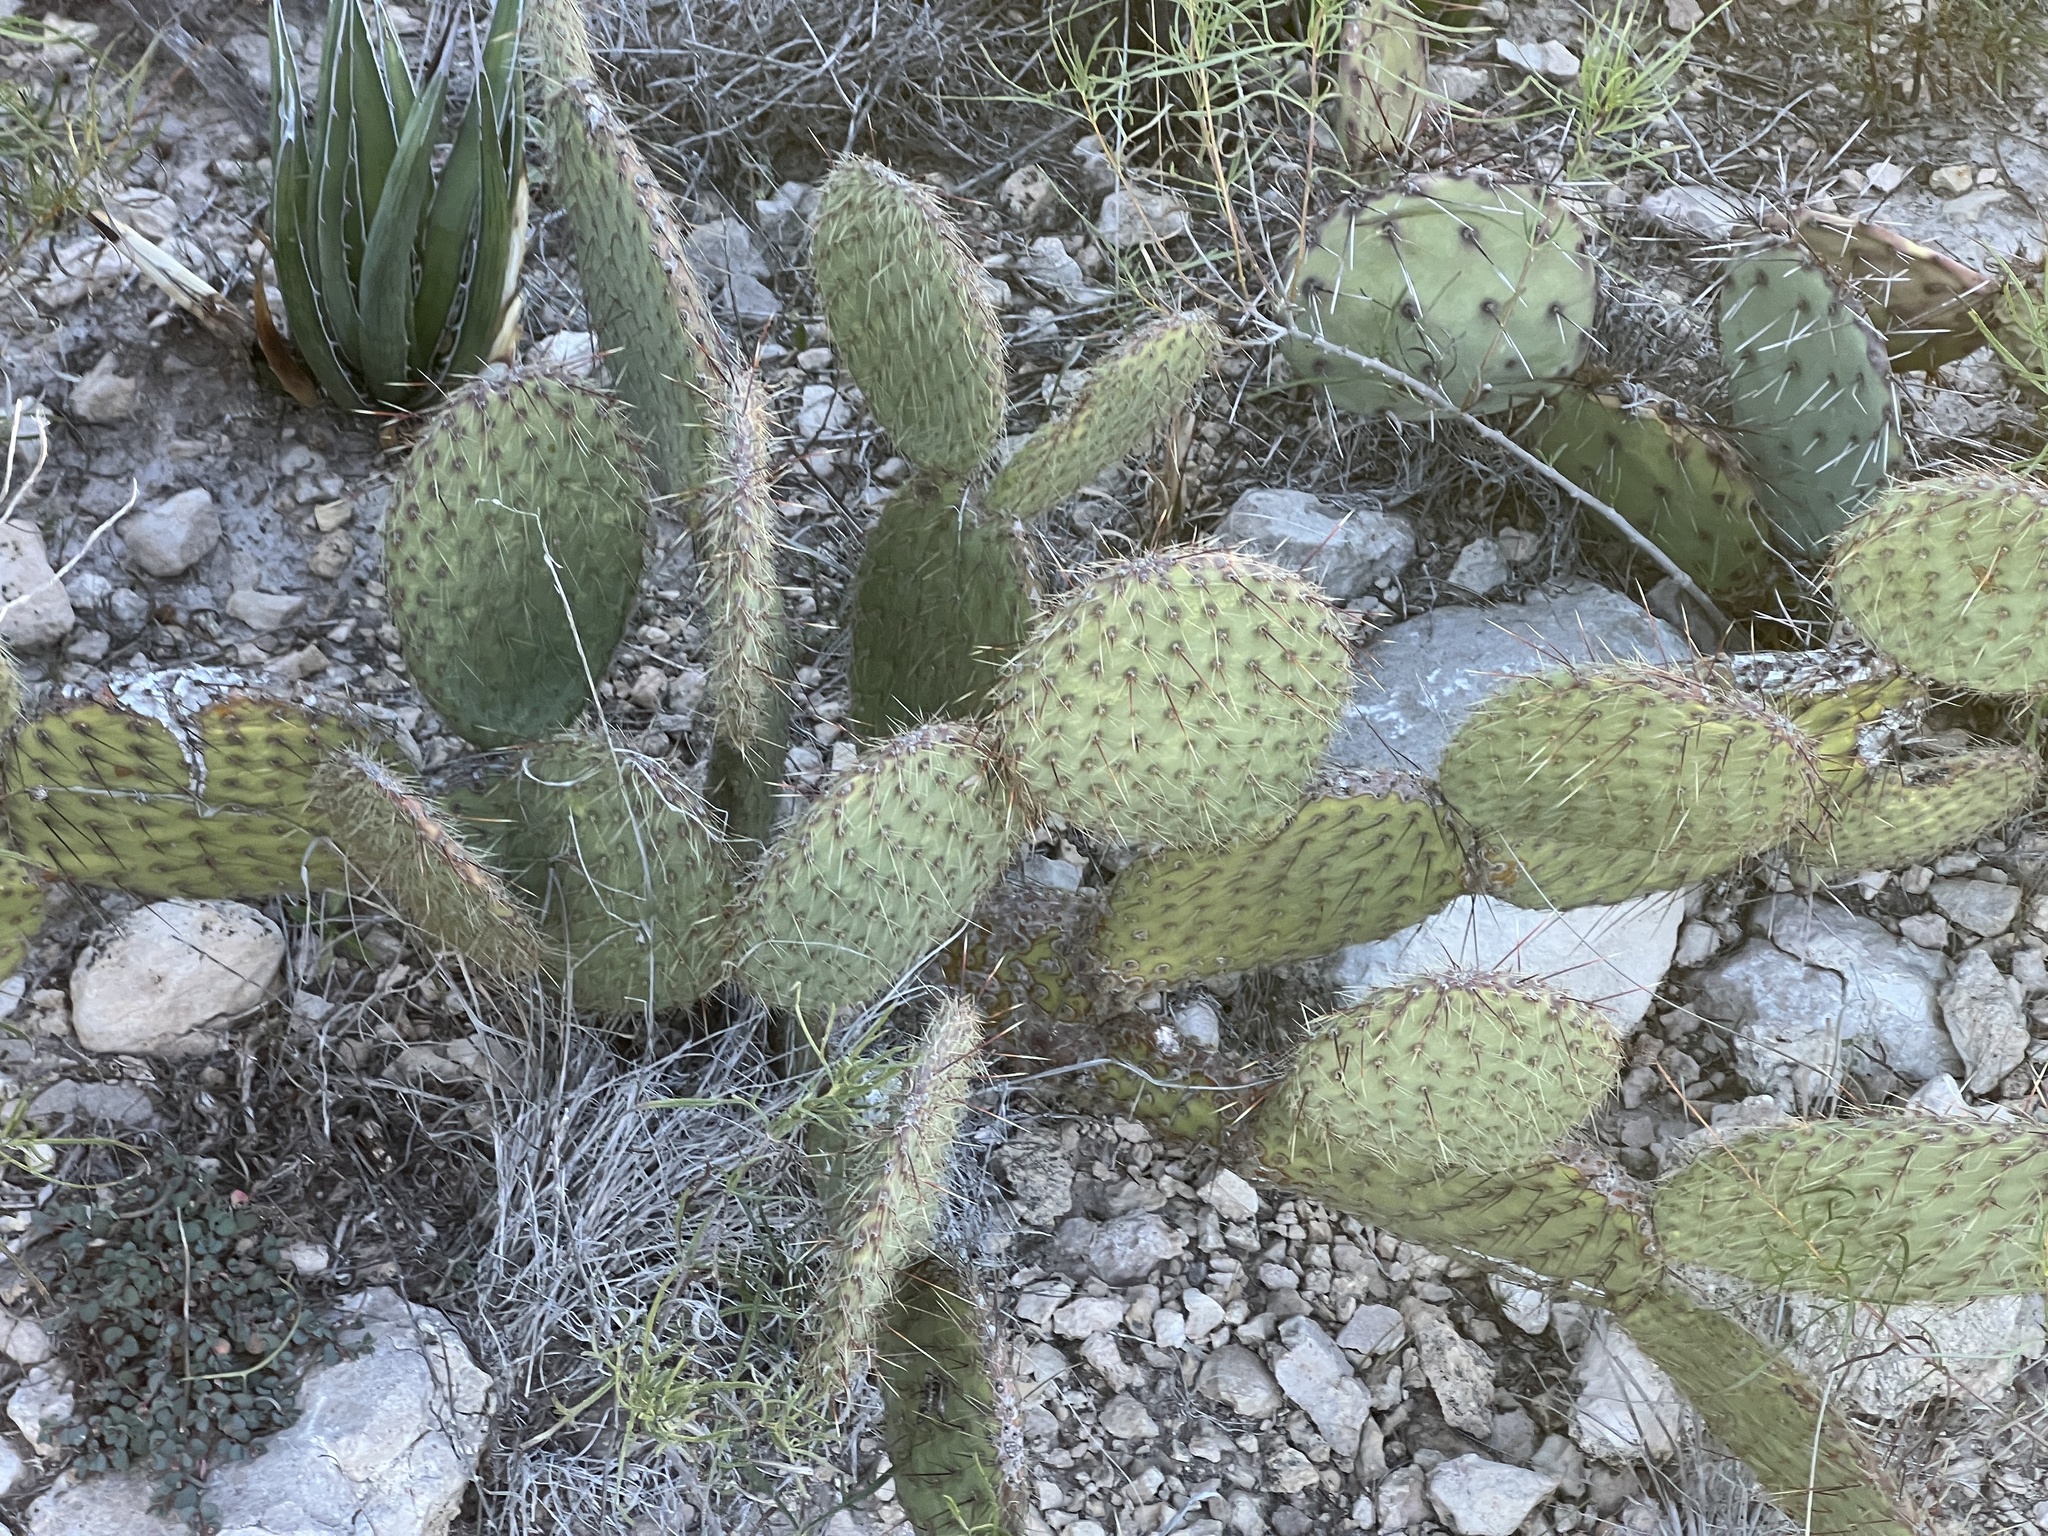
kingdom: Plantae
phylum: Tracheophyta
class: Magnoliopsida
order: Caryophyllales
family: Cactaceae
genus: Opuntia
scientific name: Opuntia strigil
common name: Marble-fruit prickly-pear
